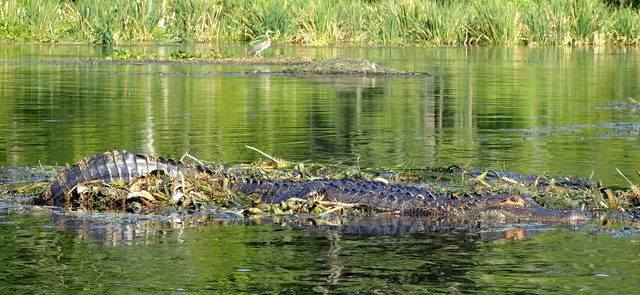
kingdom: Animalia
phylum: Chordata
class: Crocodylia
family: Alligatoridae
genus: Alligator
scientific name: Alligator mississippiensis
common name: American alligator
